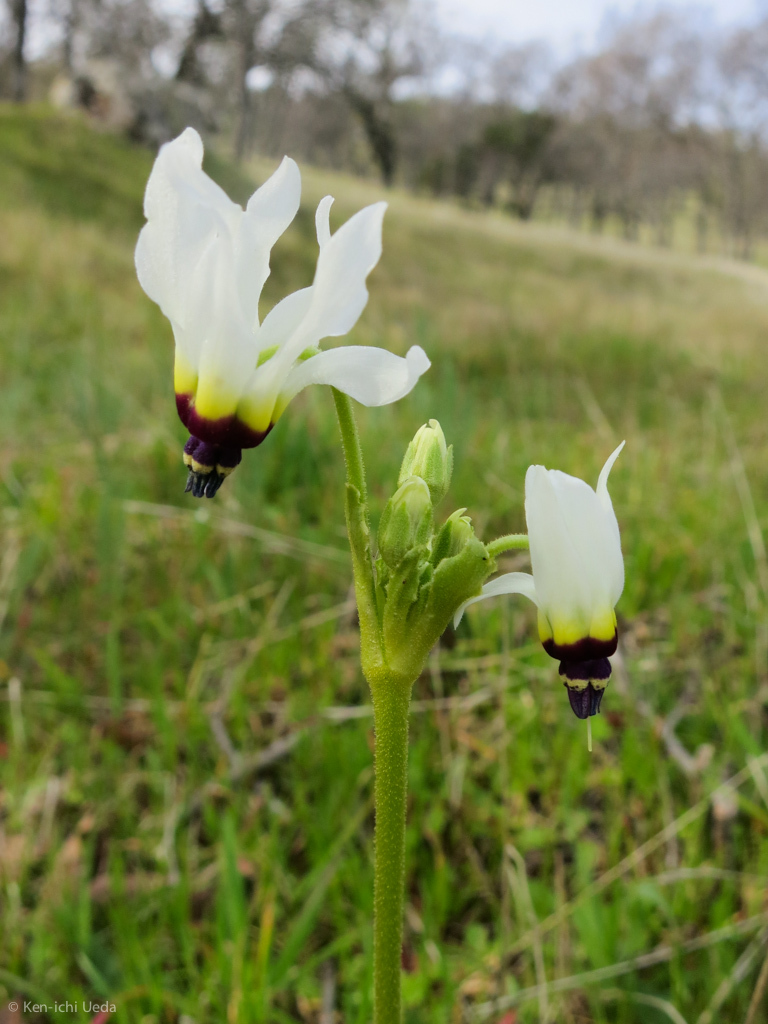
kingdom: Plantae
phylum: Tracheophyta
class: Magnoliopsida
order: Ericales
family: Primulaceae
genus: Dodecatheon
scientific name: Dodecatheon clevelandii
